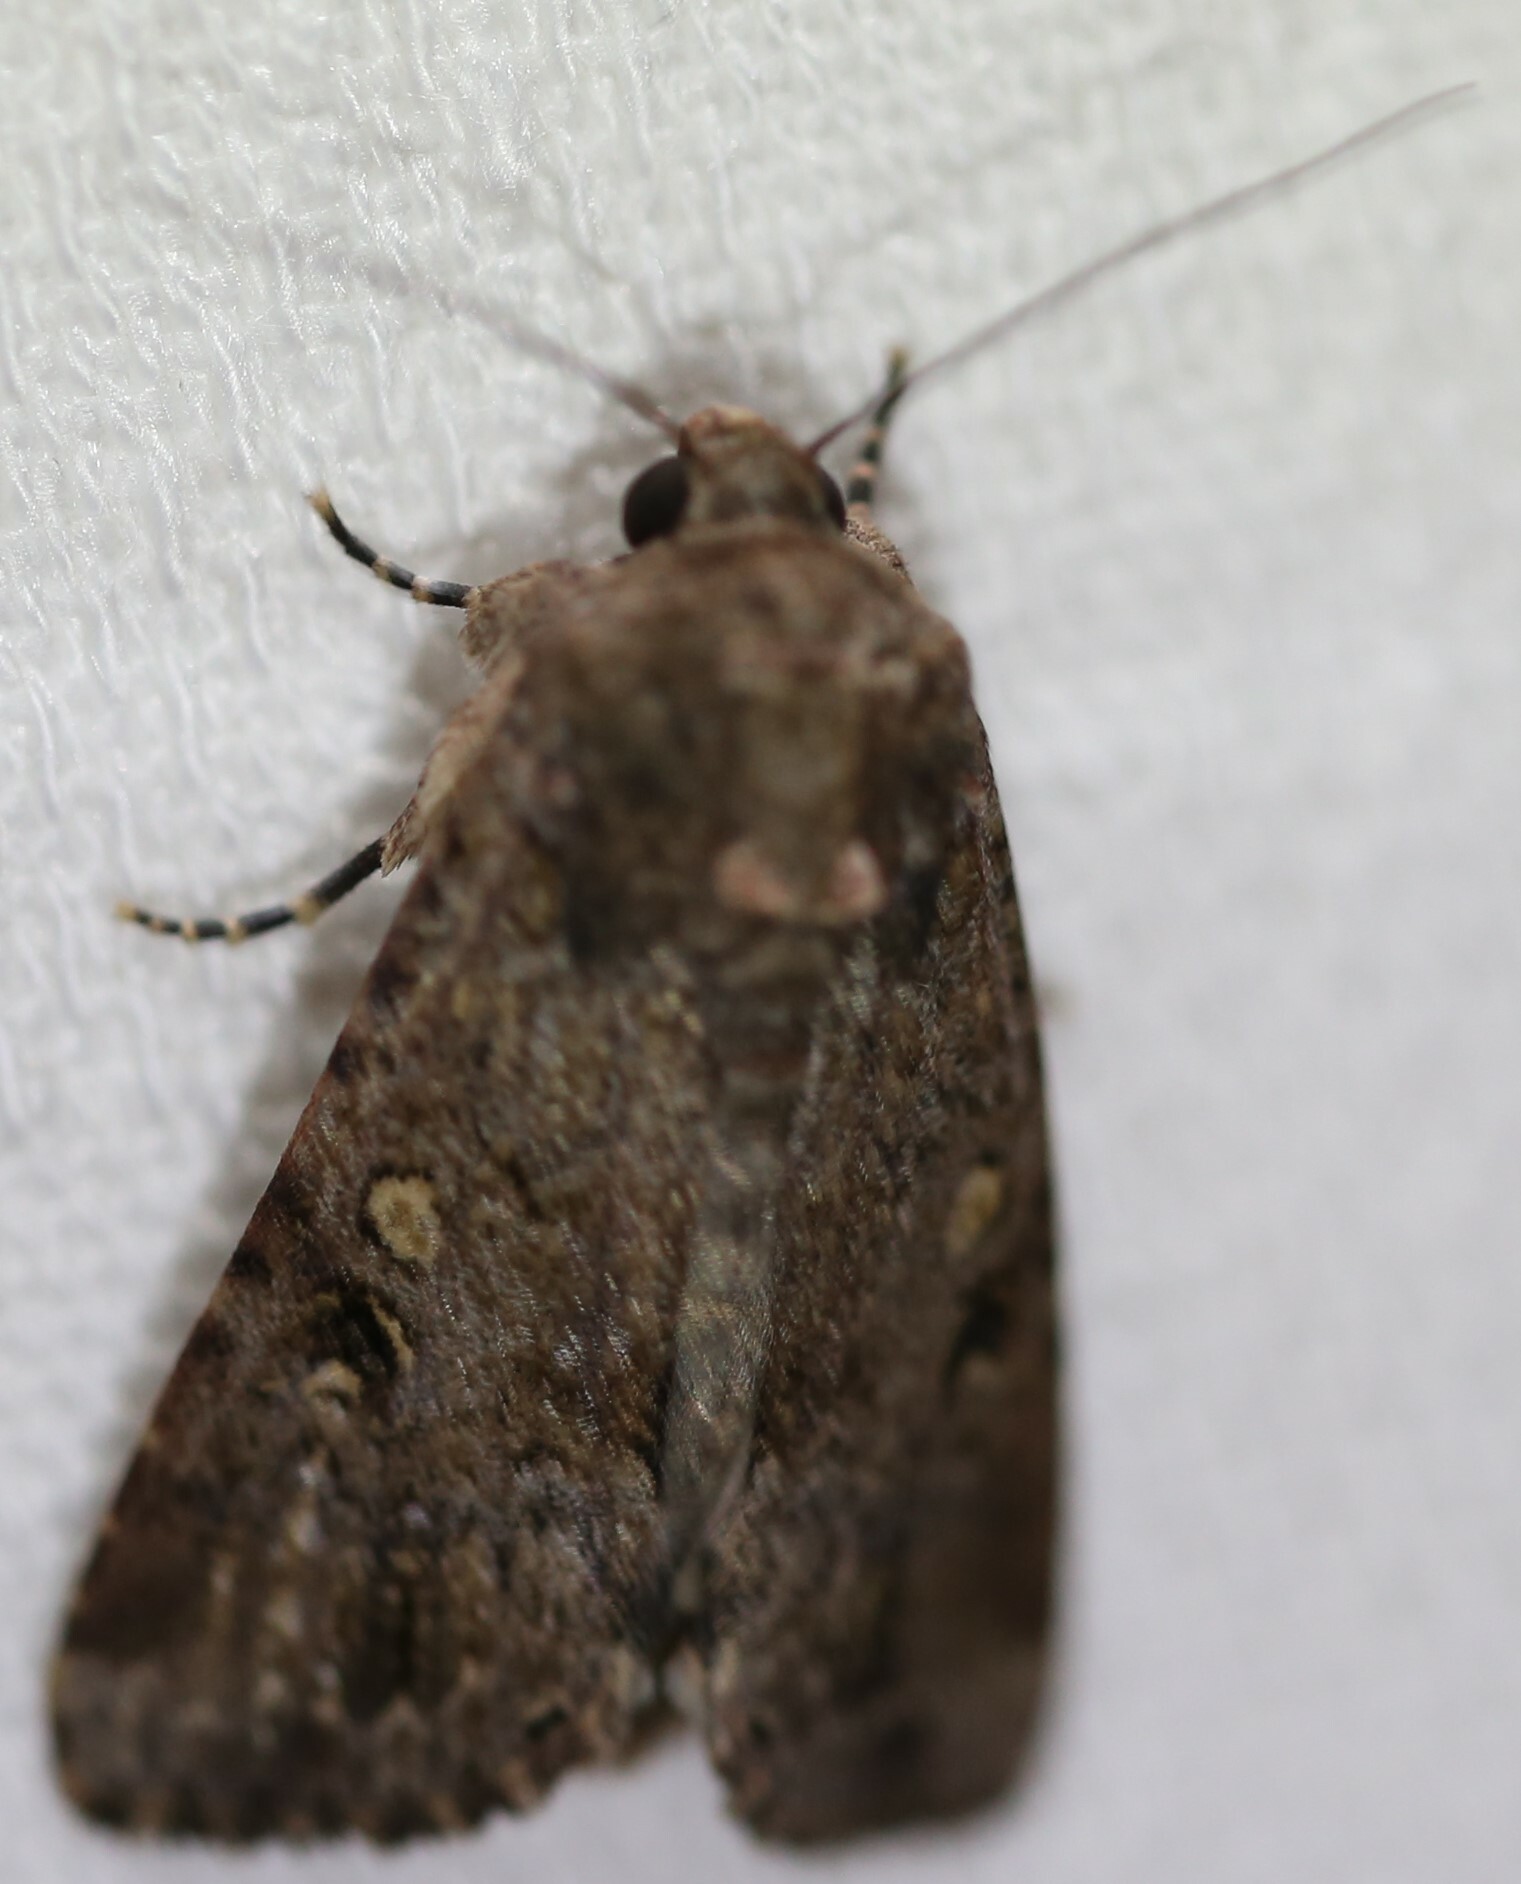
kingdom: Animalia
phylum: Arthropoda
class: Insecta
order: Lepidoptera
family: Noctuidae
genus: Spodoptera
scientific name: Spodoptera mauritia
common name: Lawn armyworm
